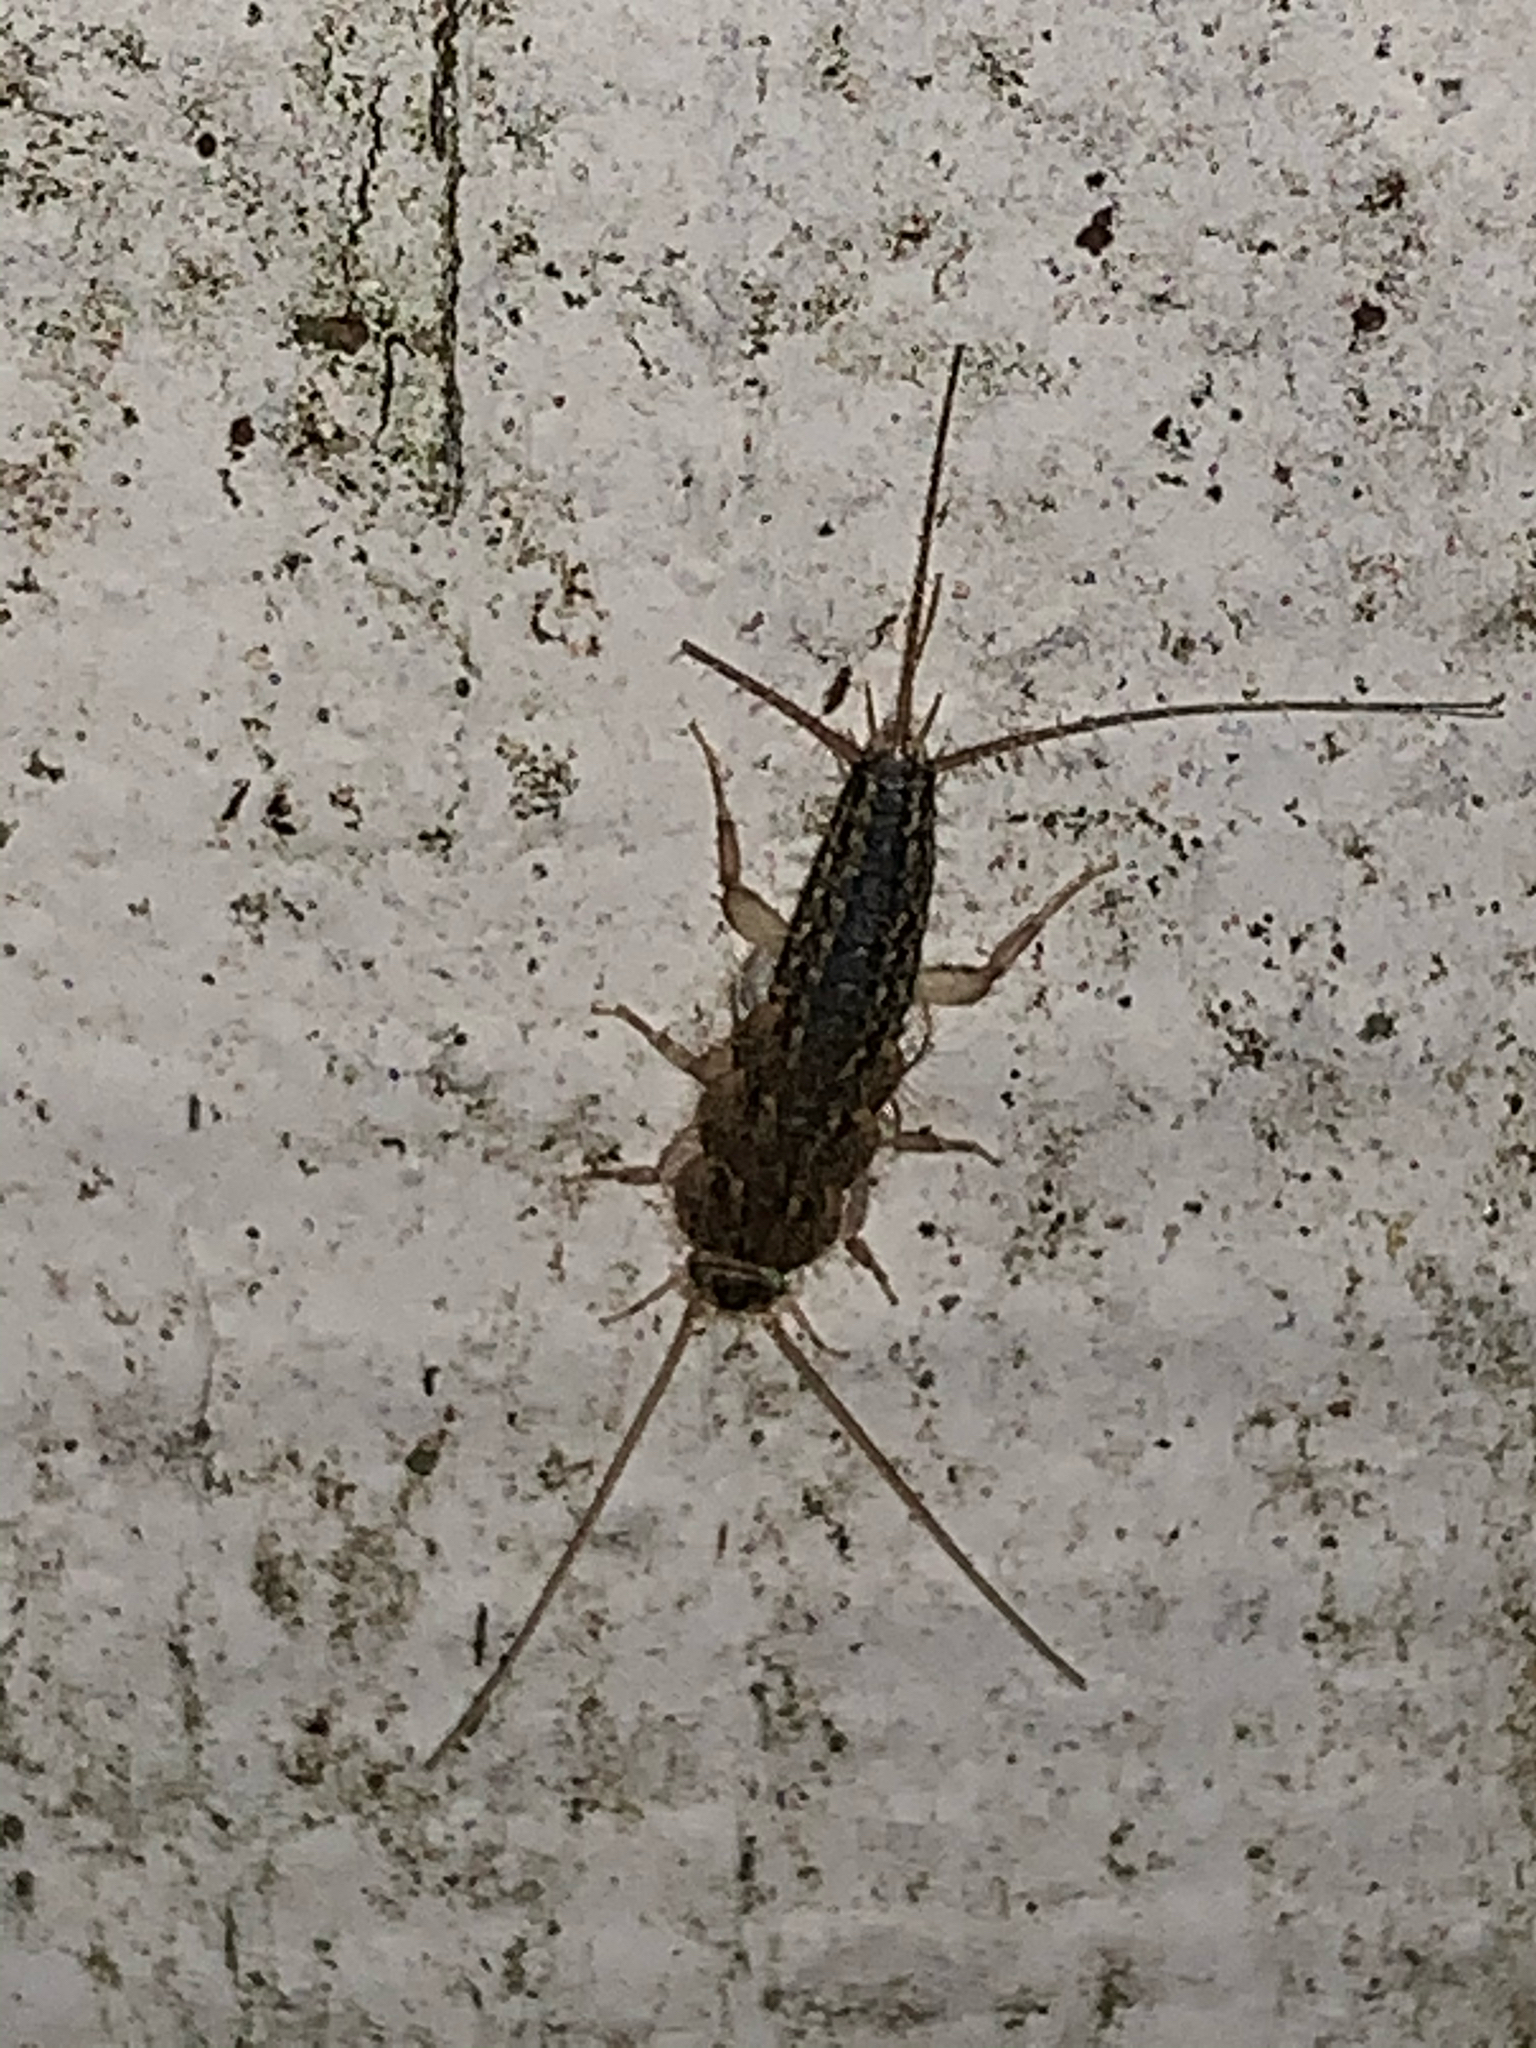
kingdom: Animalia
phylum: Arthropoda
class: Insecta
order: Zygentoma
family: Lepismatidae
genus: Ctenolepisma
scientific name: Ctenolepisma lineata
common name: Four-lined silverfish
